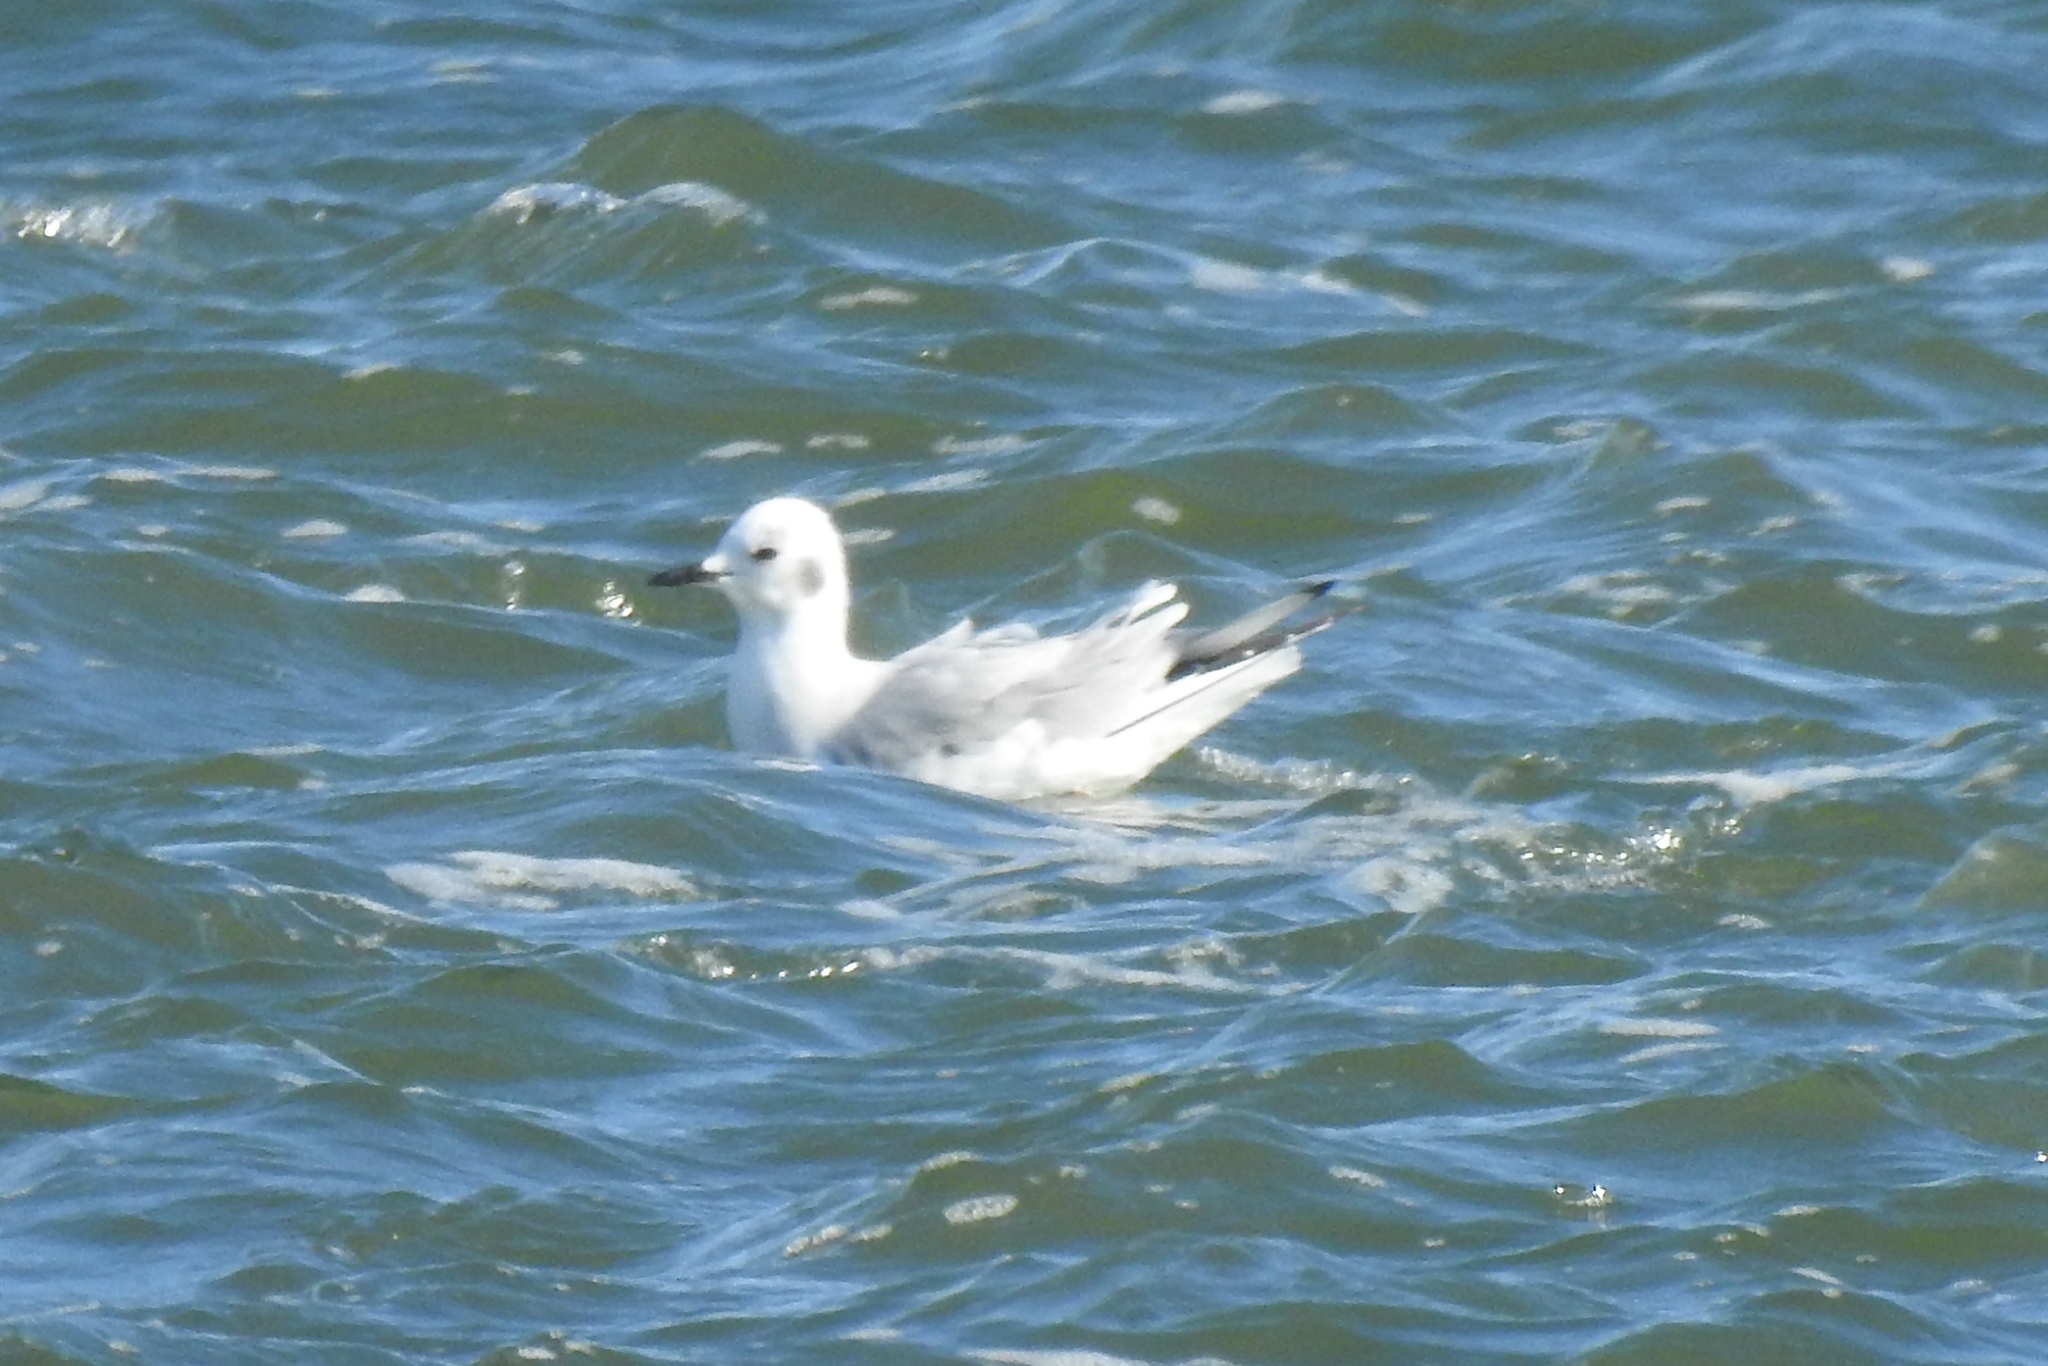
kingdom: Animalia
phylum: Chordata
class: Aves
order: Charadriiformes
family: Laridae
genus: Chroicocephalus
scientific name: Chroicocephalus philadelphia
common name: Bonaparte's gull
